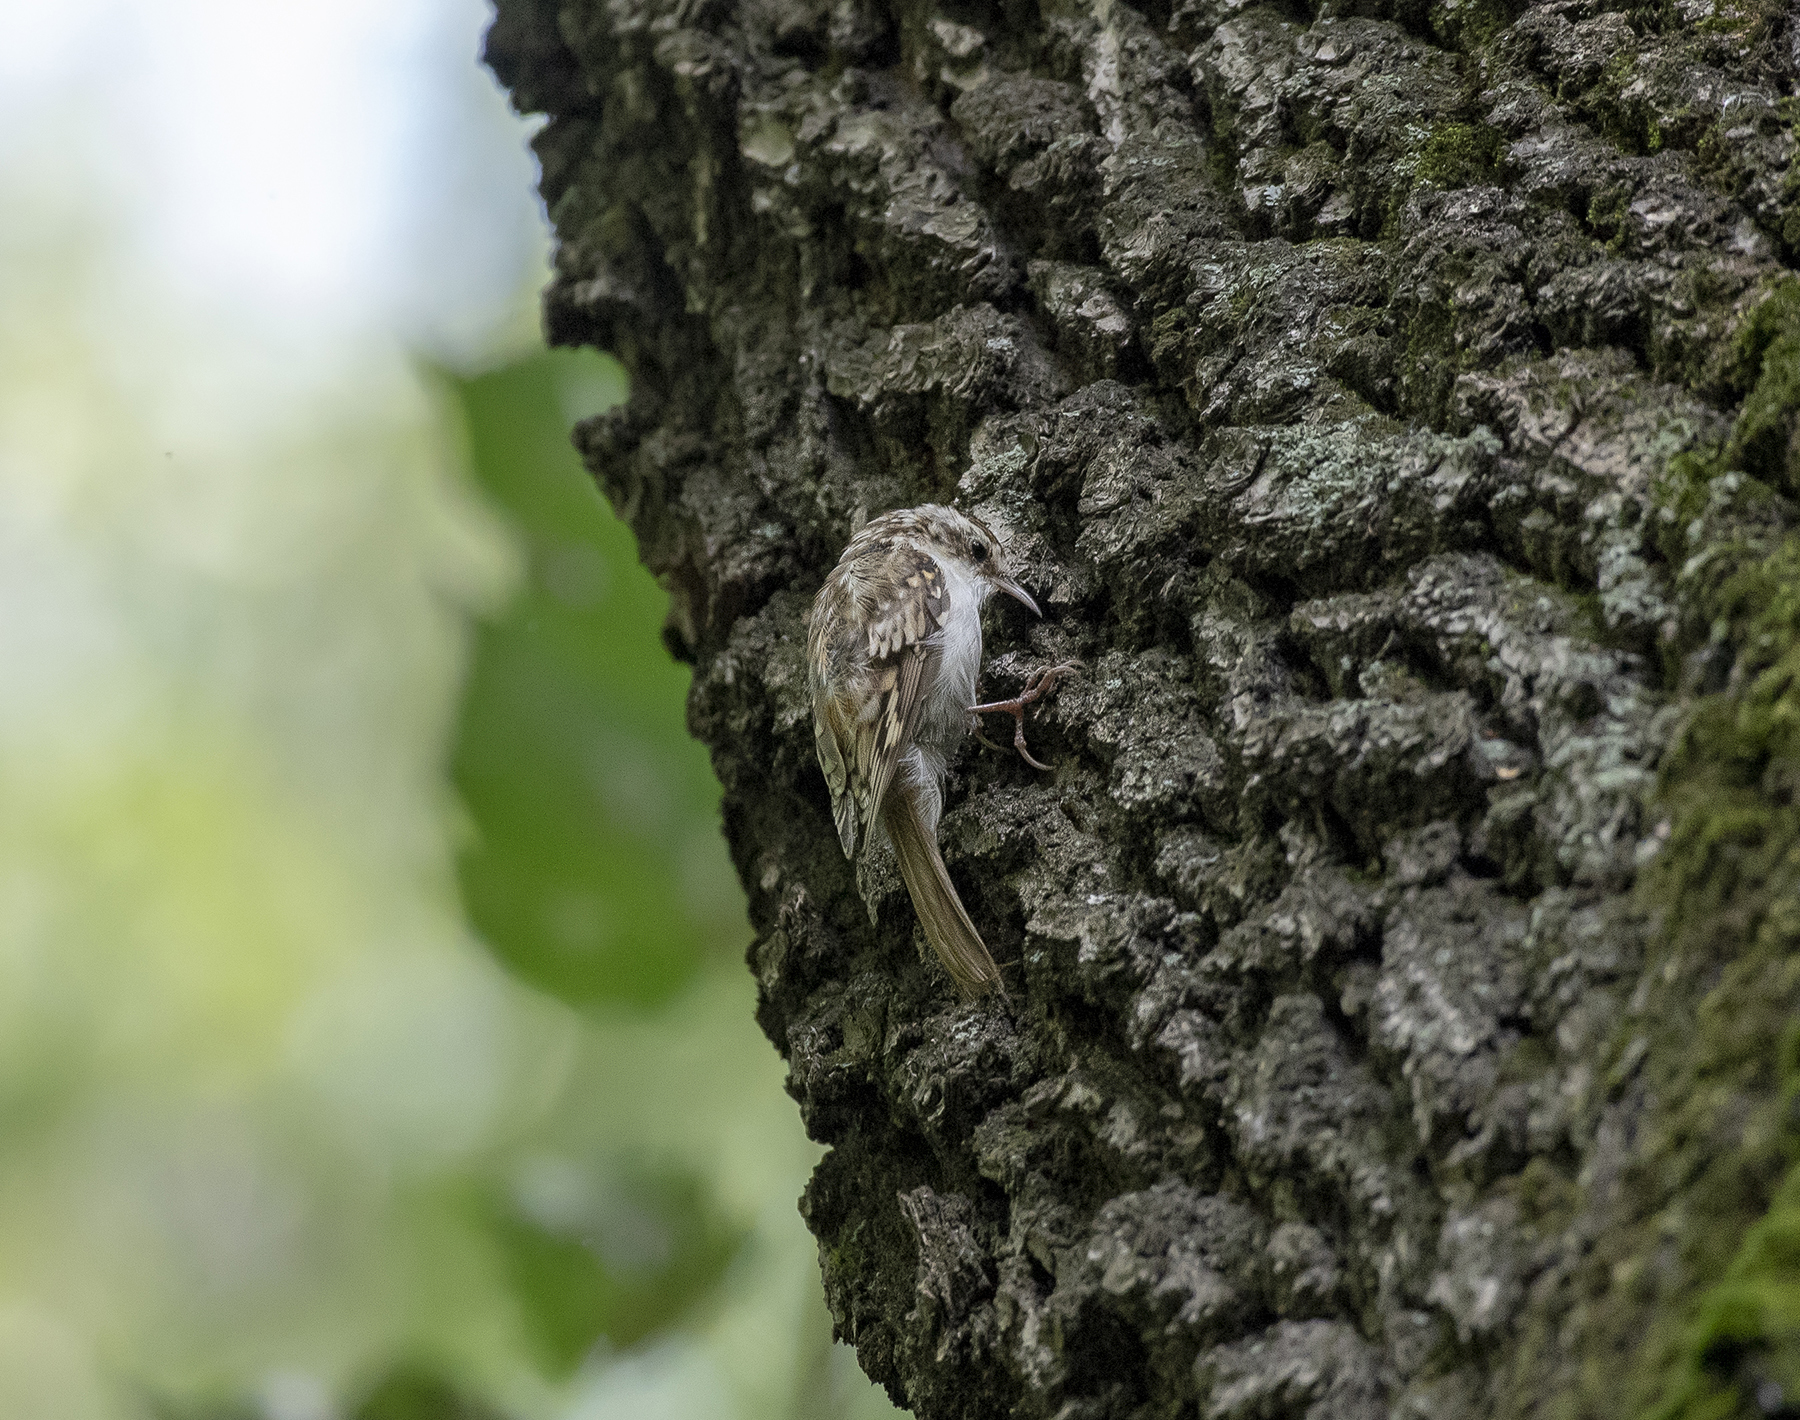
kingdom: Animalia
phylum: Chordata
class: Aves
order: Passeriformes
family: Certhiidae
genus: Certhia
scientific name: Certhia familiaris
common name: Eurasian treecreeper
